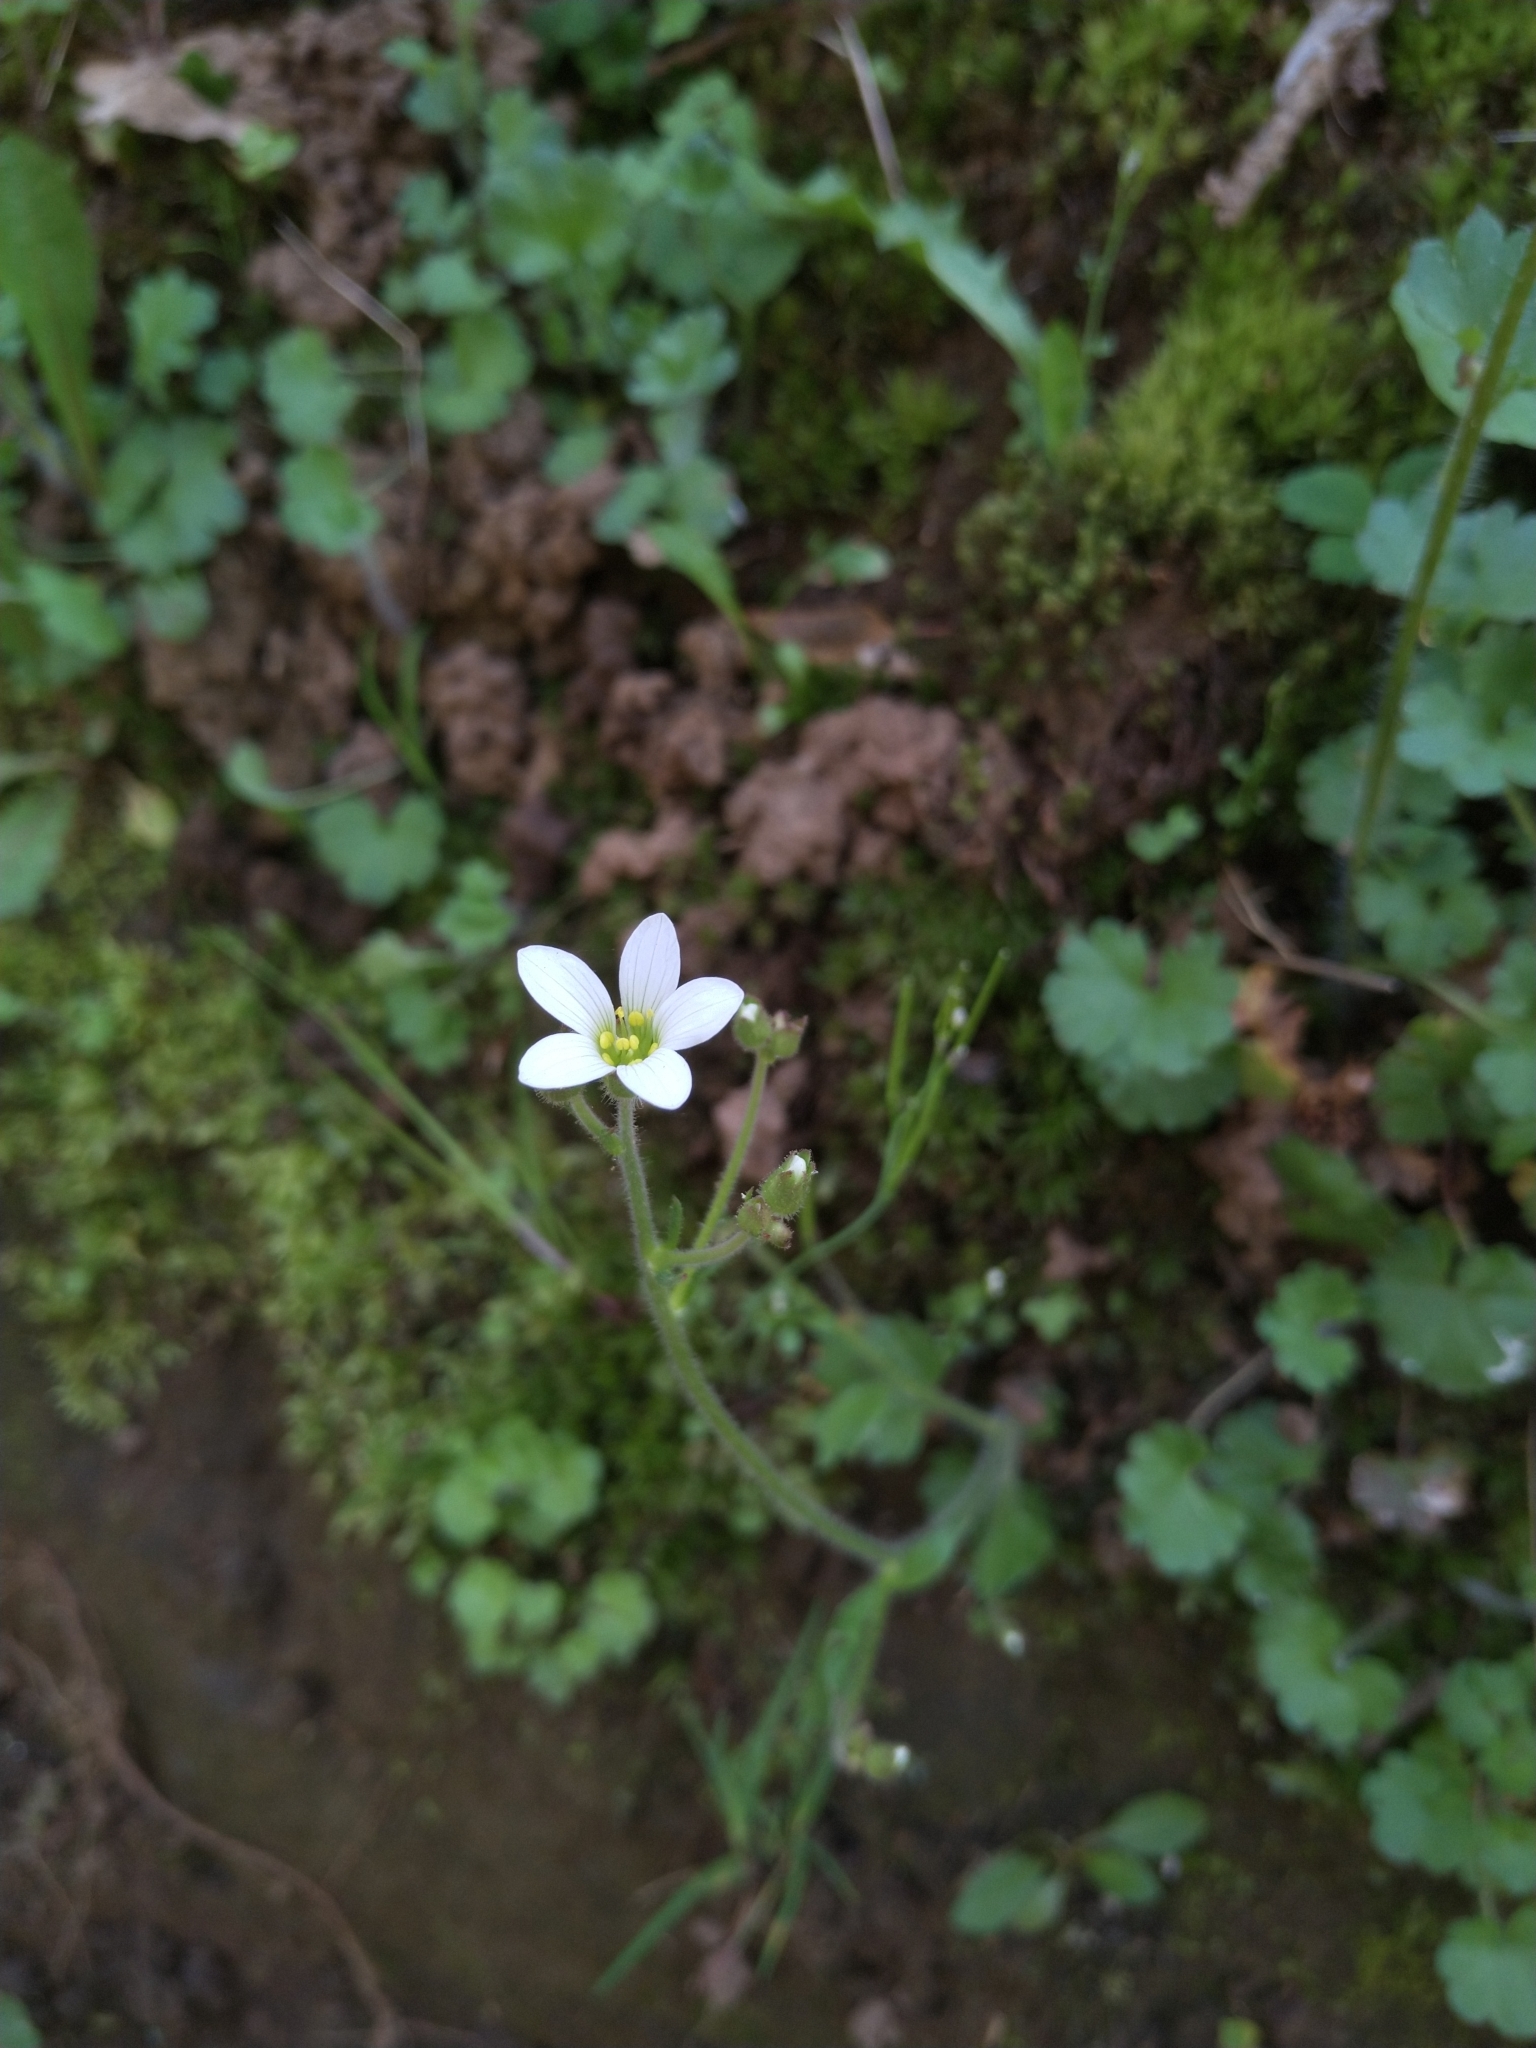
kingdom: Plantae
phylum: Tracheophyta
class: Magnoliopsida
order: Saxifragales
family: Saxifragaceae
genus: Saxifraga
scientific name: Saxifraga granulata
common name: Meadow saxifrage
